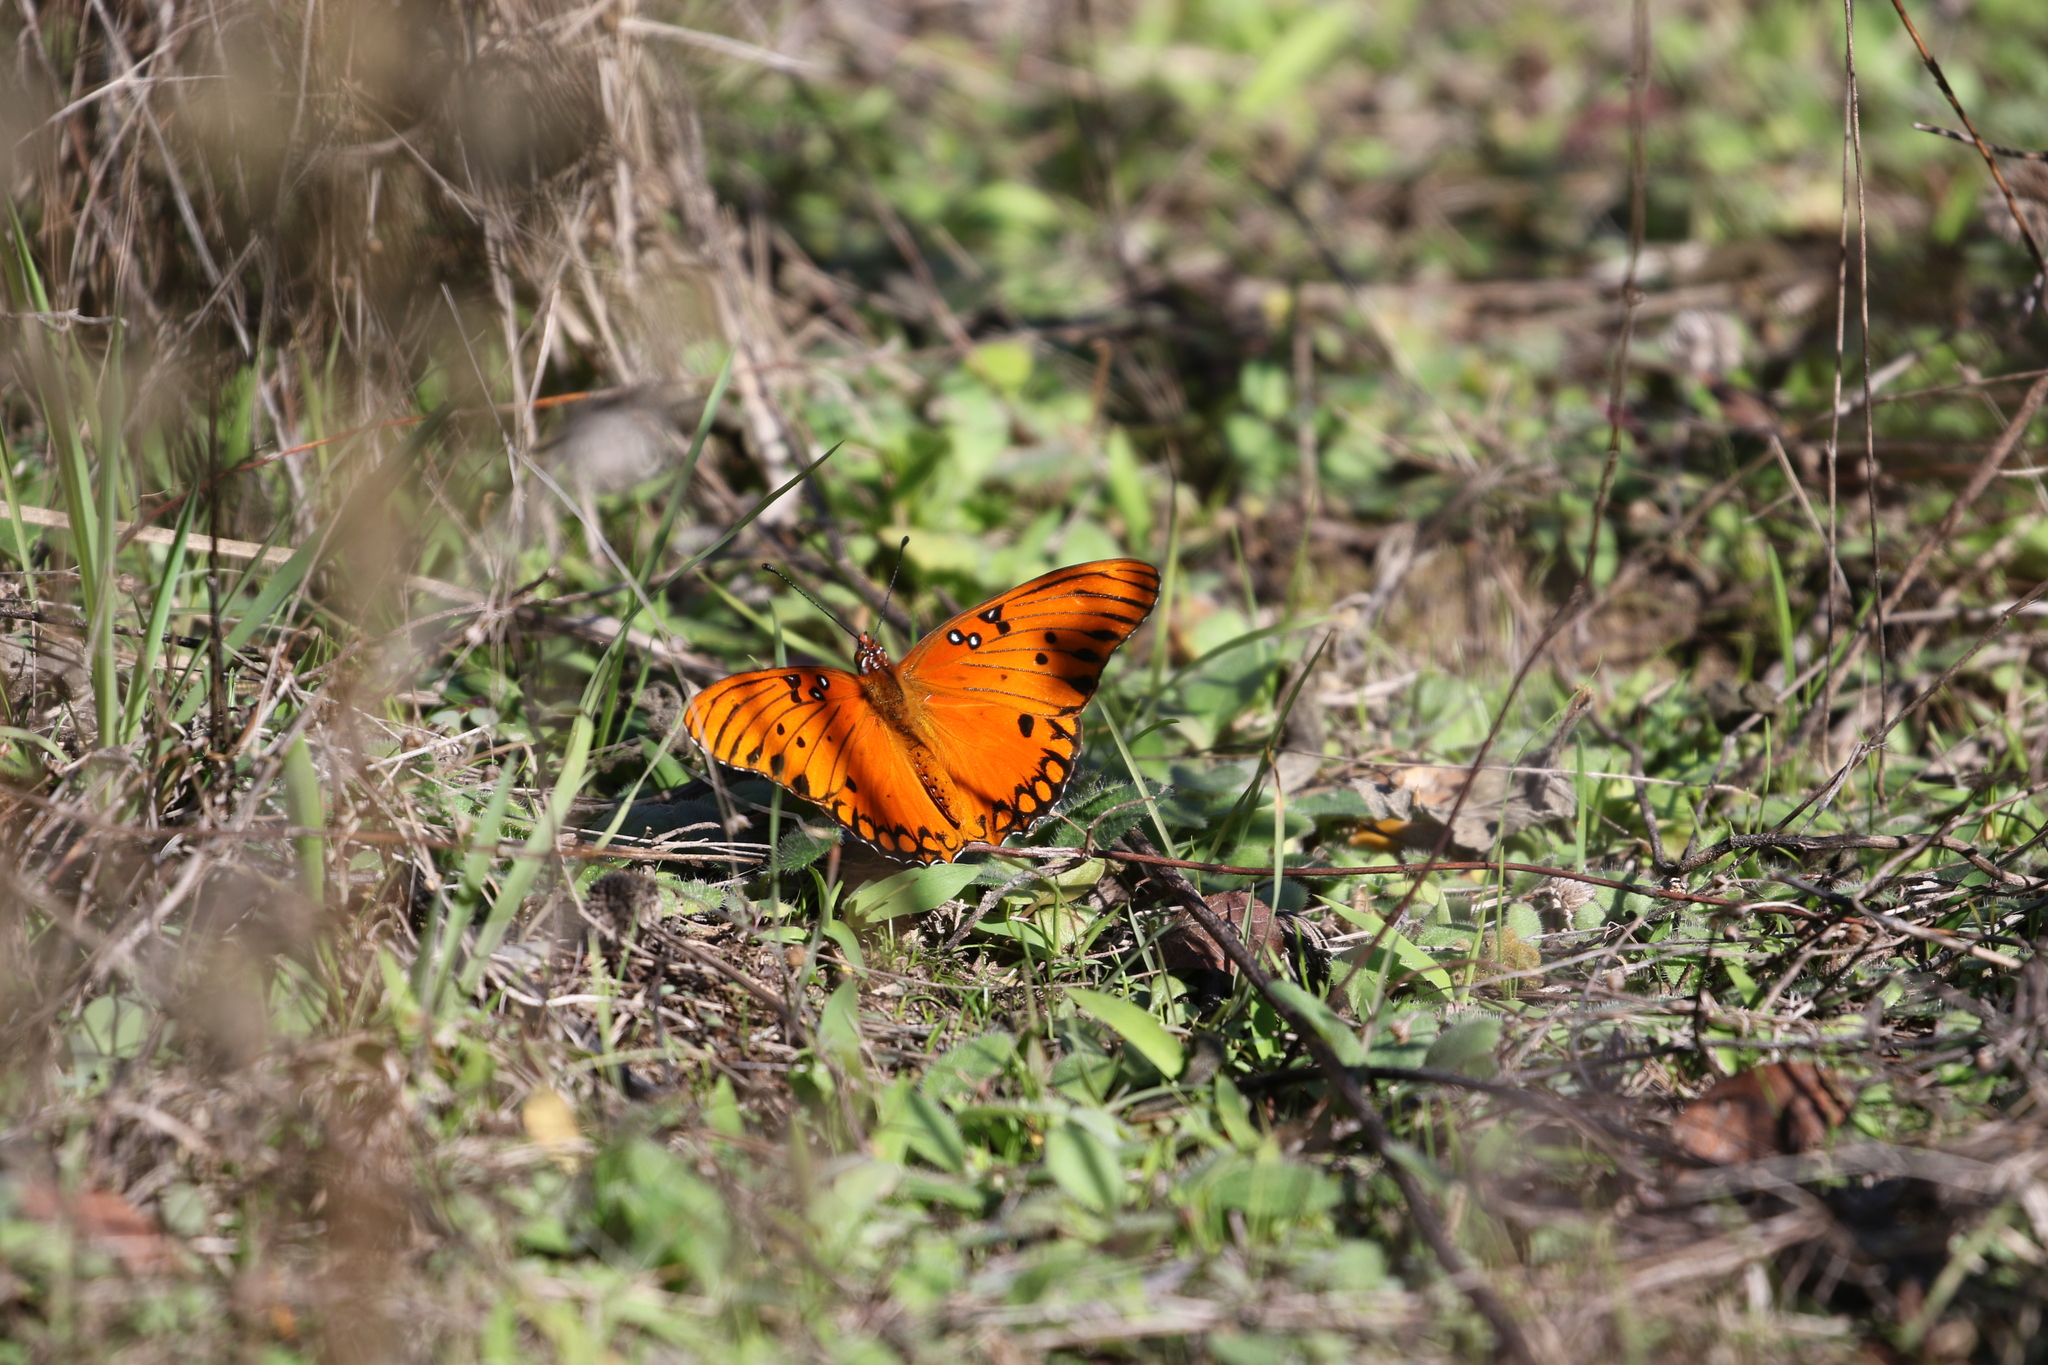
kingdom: Animalia
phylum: Arthropoda
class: Insecta
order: Lepidoptera
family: Nymphalidae
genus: Dione
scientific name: Dione vanillae
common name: Gulf fritillary
